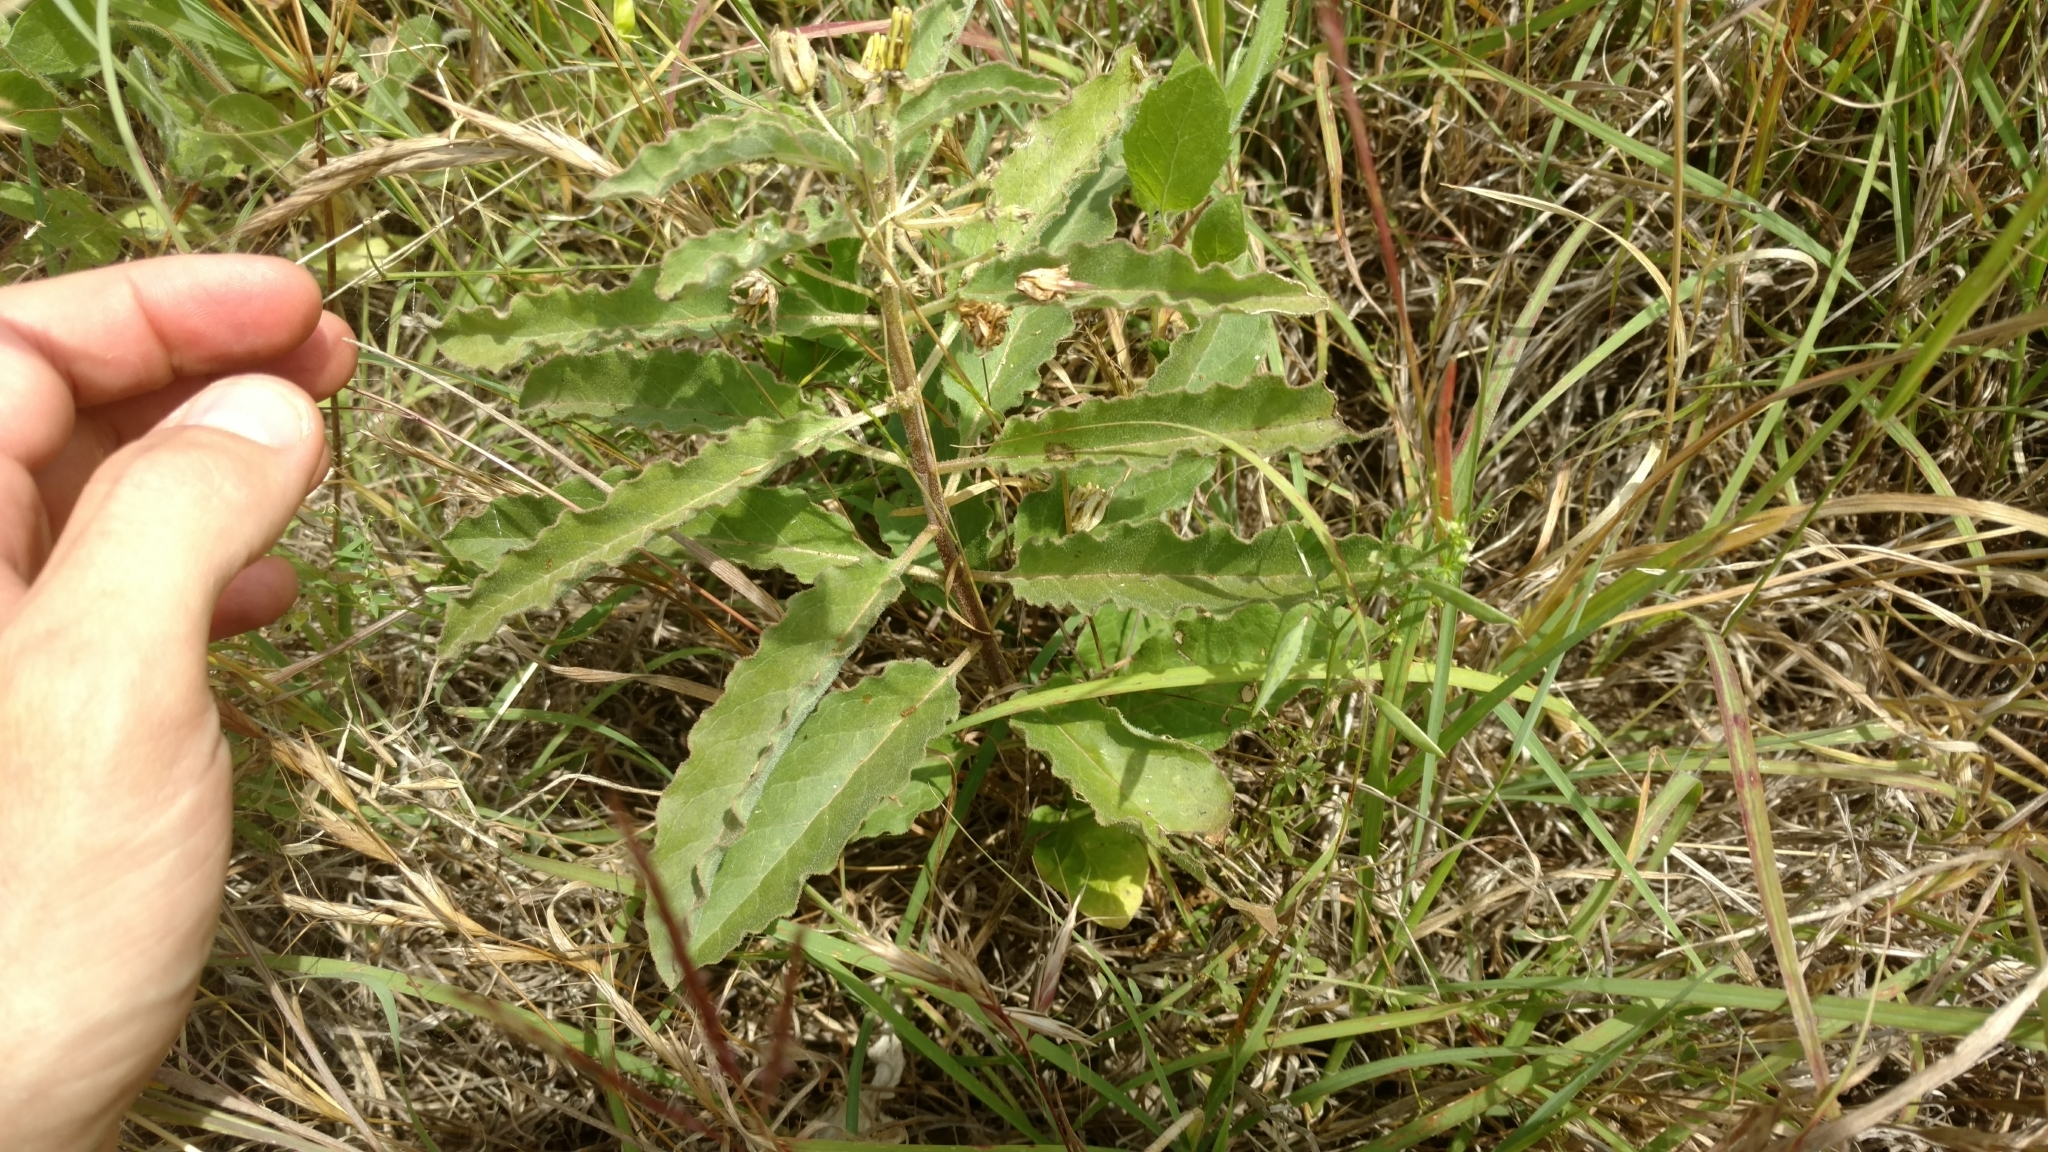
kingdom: Plantae
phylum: Tracheophyta
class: Magnoliopsida
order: Gentianales
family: Apocynaceae
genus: Asclepias
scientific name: Asclepias oenotheroides
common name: Zizotes milkweed
